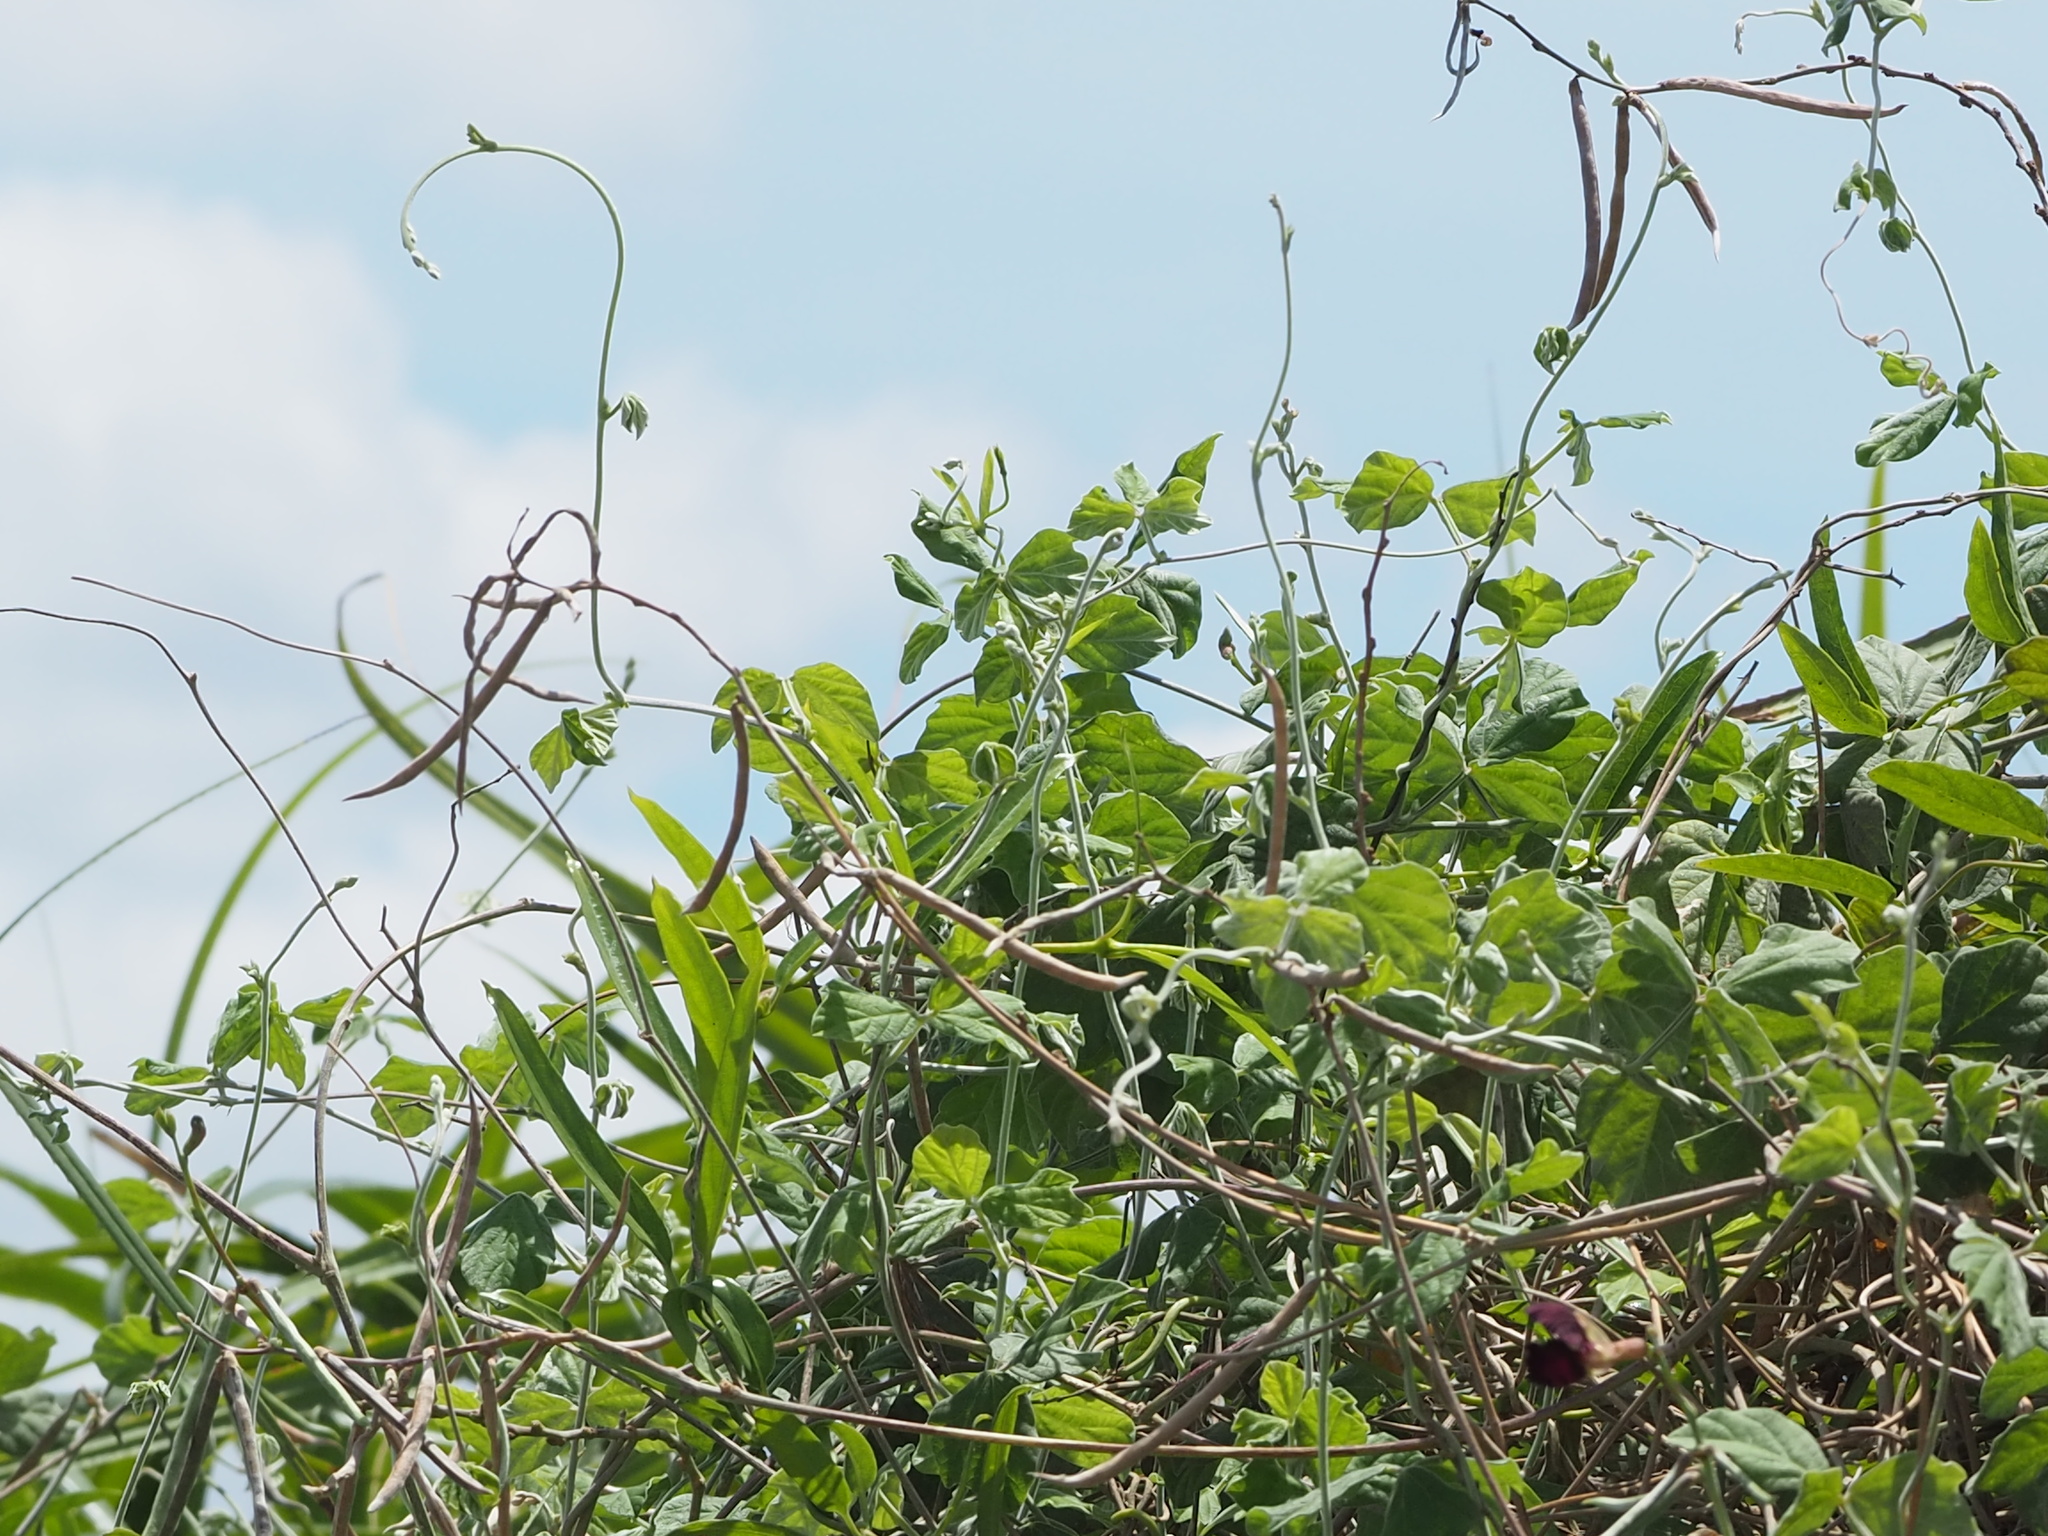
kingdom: Plantae
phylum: Tracheophyta
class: Magnoliopsida
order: Fabales
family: Fabaceae
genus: Macroptilium
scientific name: Macroptilium atropurpureum
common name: Purple bushbean
